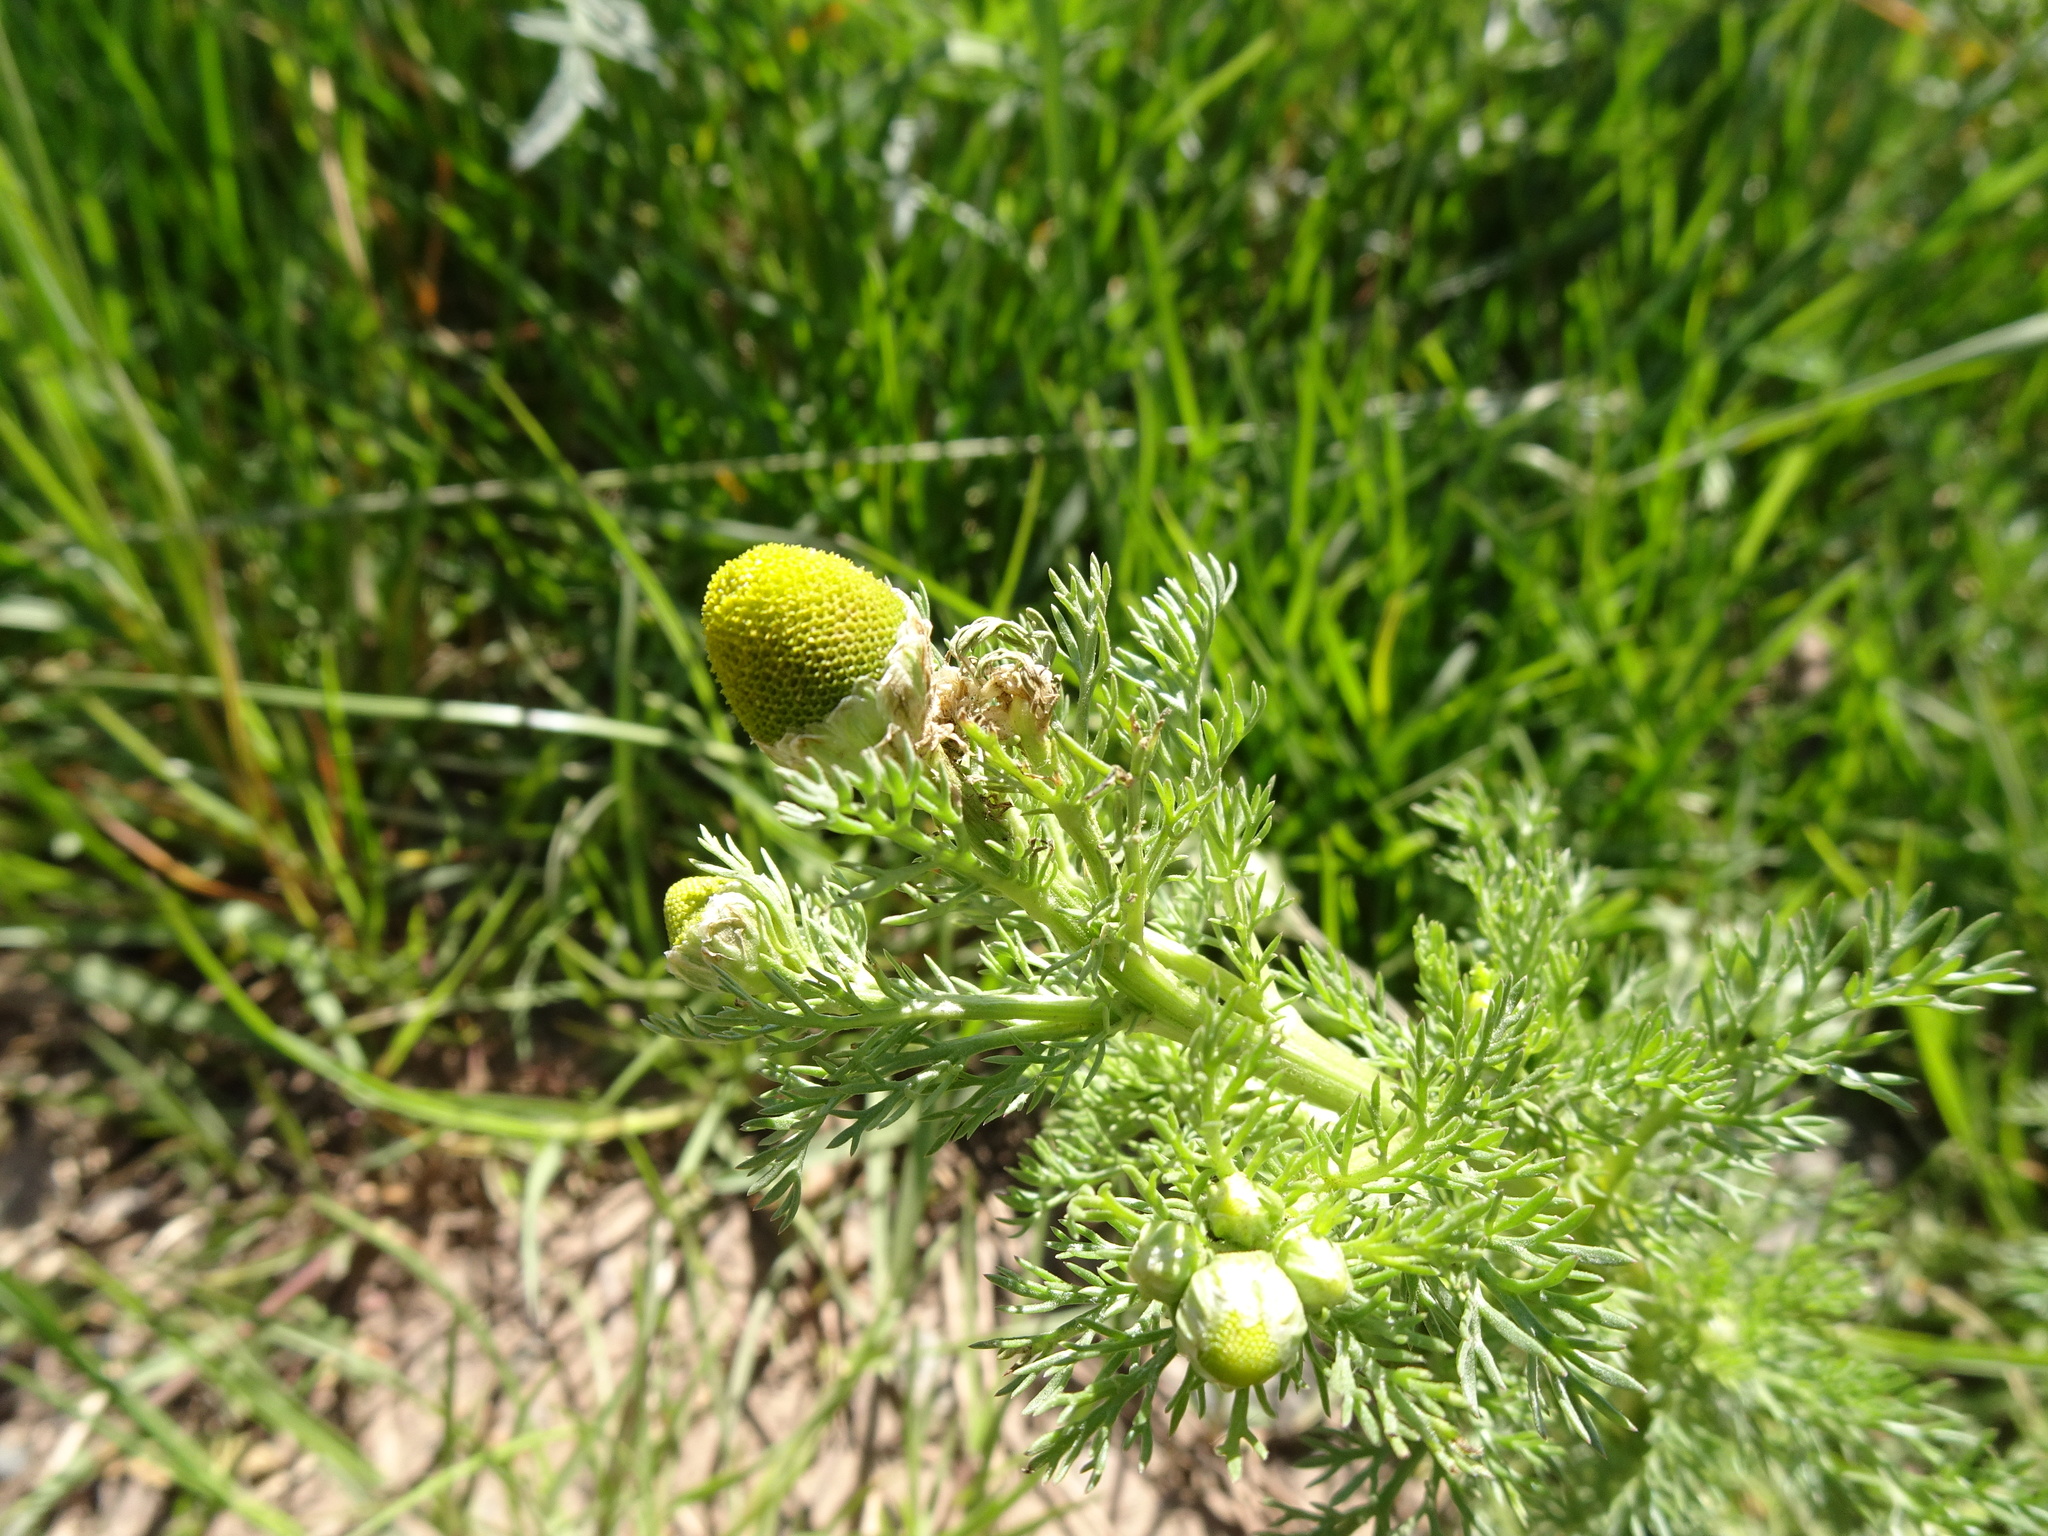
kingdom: Plantae
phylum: Tracheophyta
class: Magnoliopsida
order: Asterales
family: Asteraceae
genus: Matricaria
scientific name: Matricaria discoidea
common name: Disc mayweed
